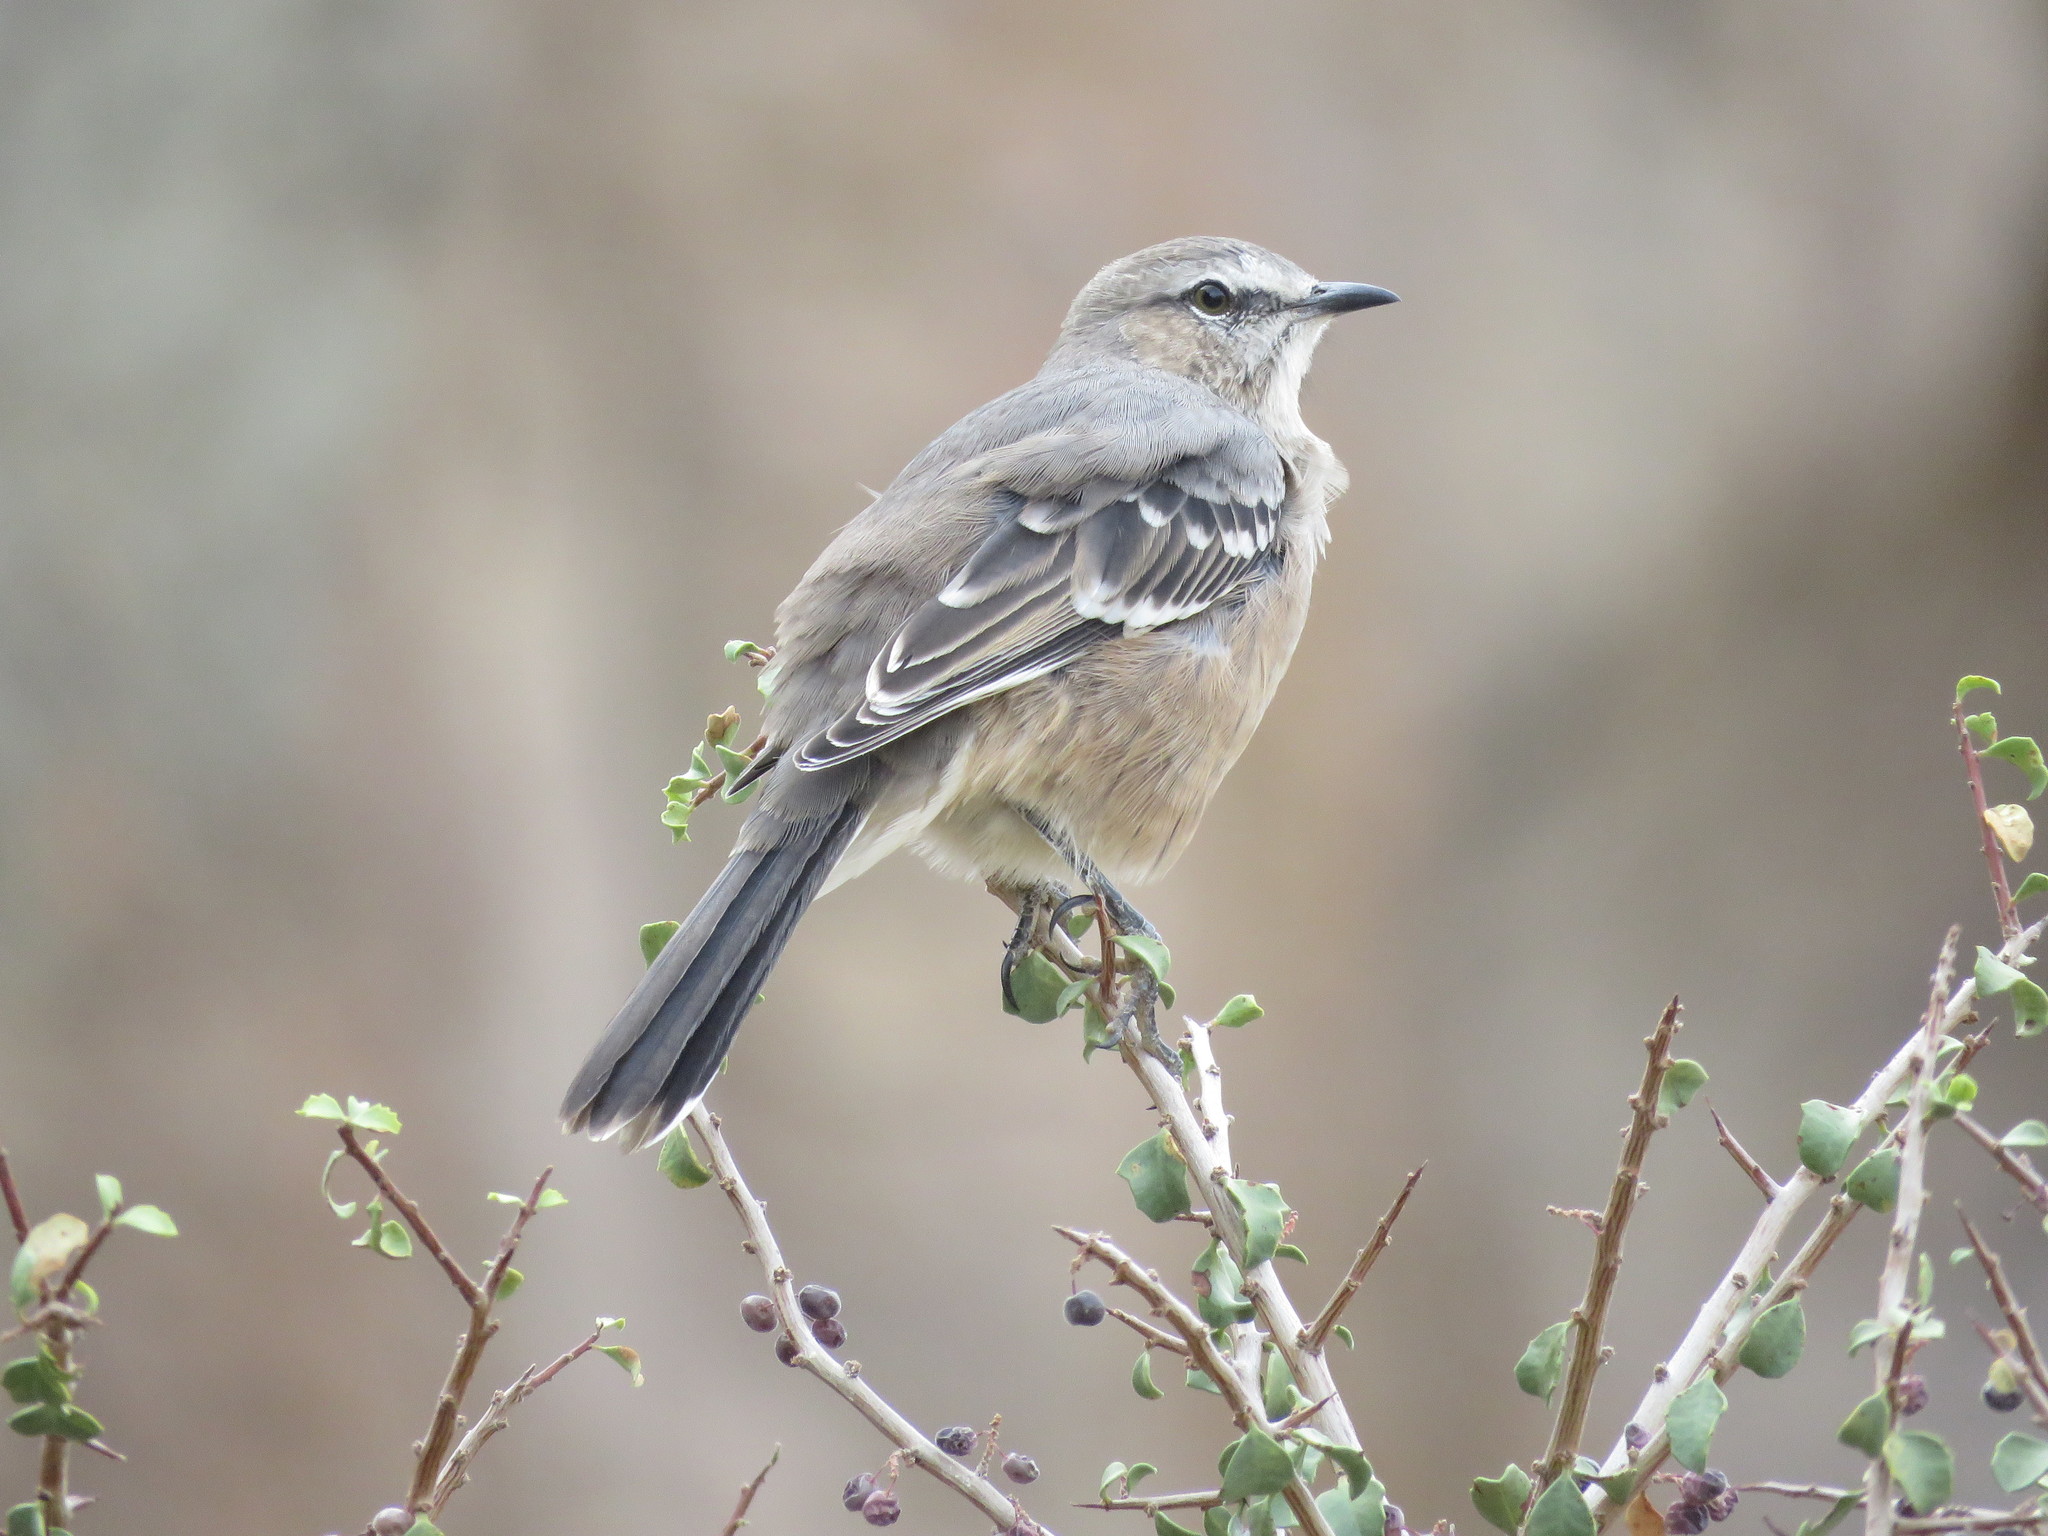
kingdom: Animalia
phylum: Chordata
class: Aves
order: Passeriformes
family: Mimidae
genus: Mimus
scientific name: Mimus patagonicus
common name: Patagonian mockingbird
